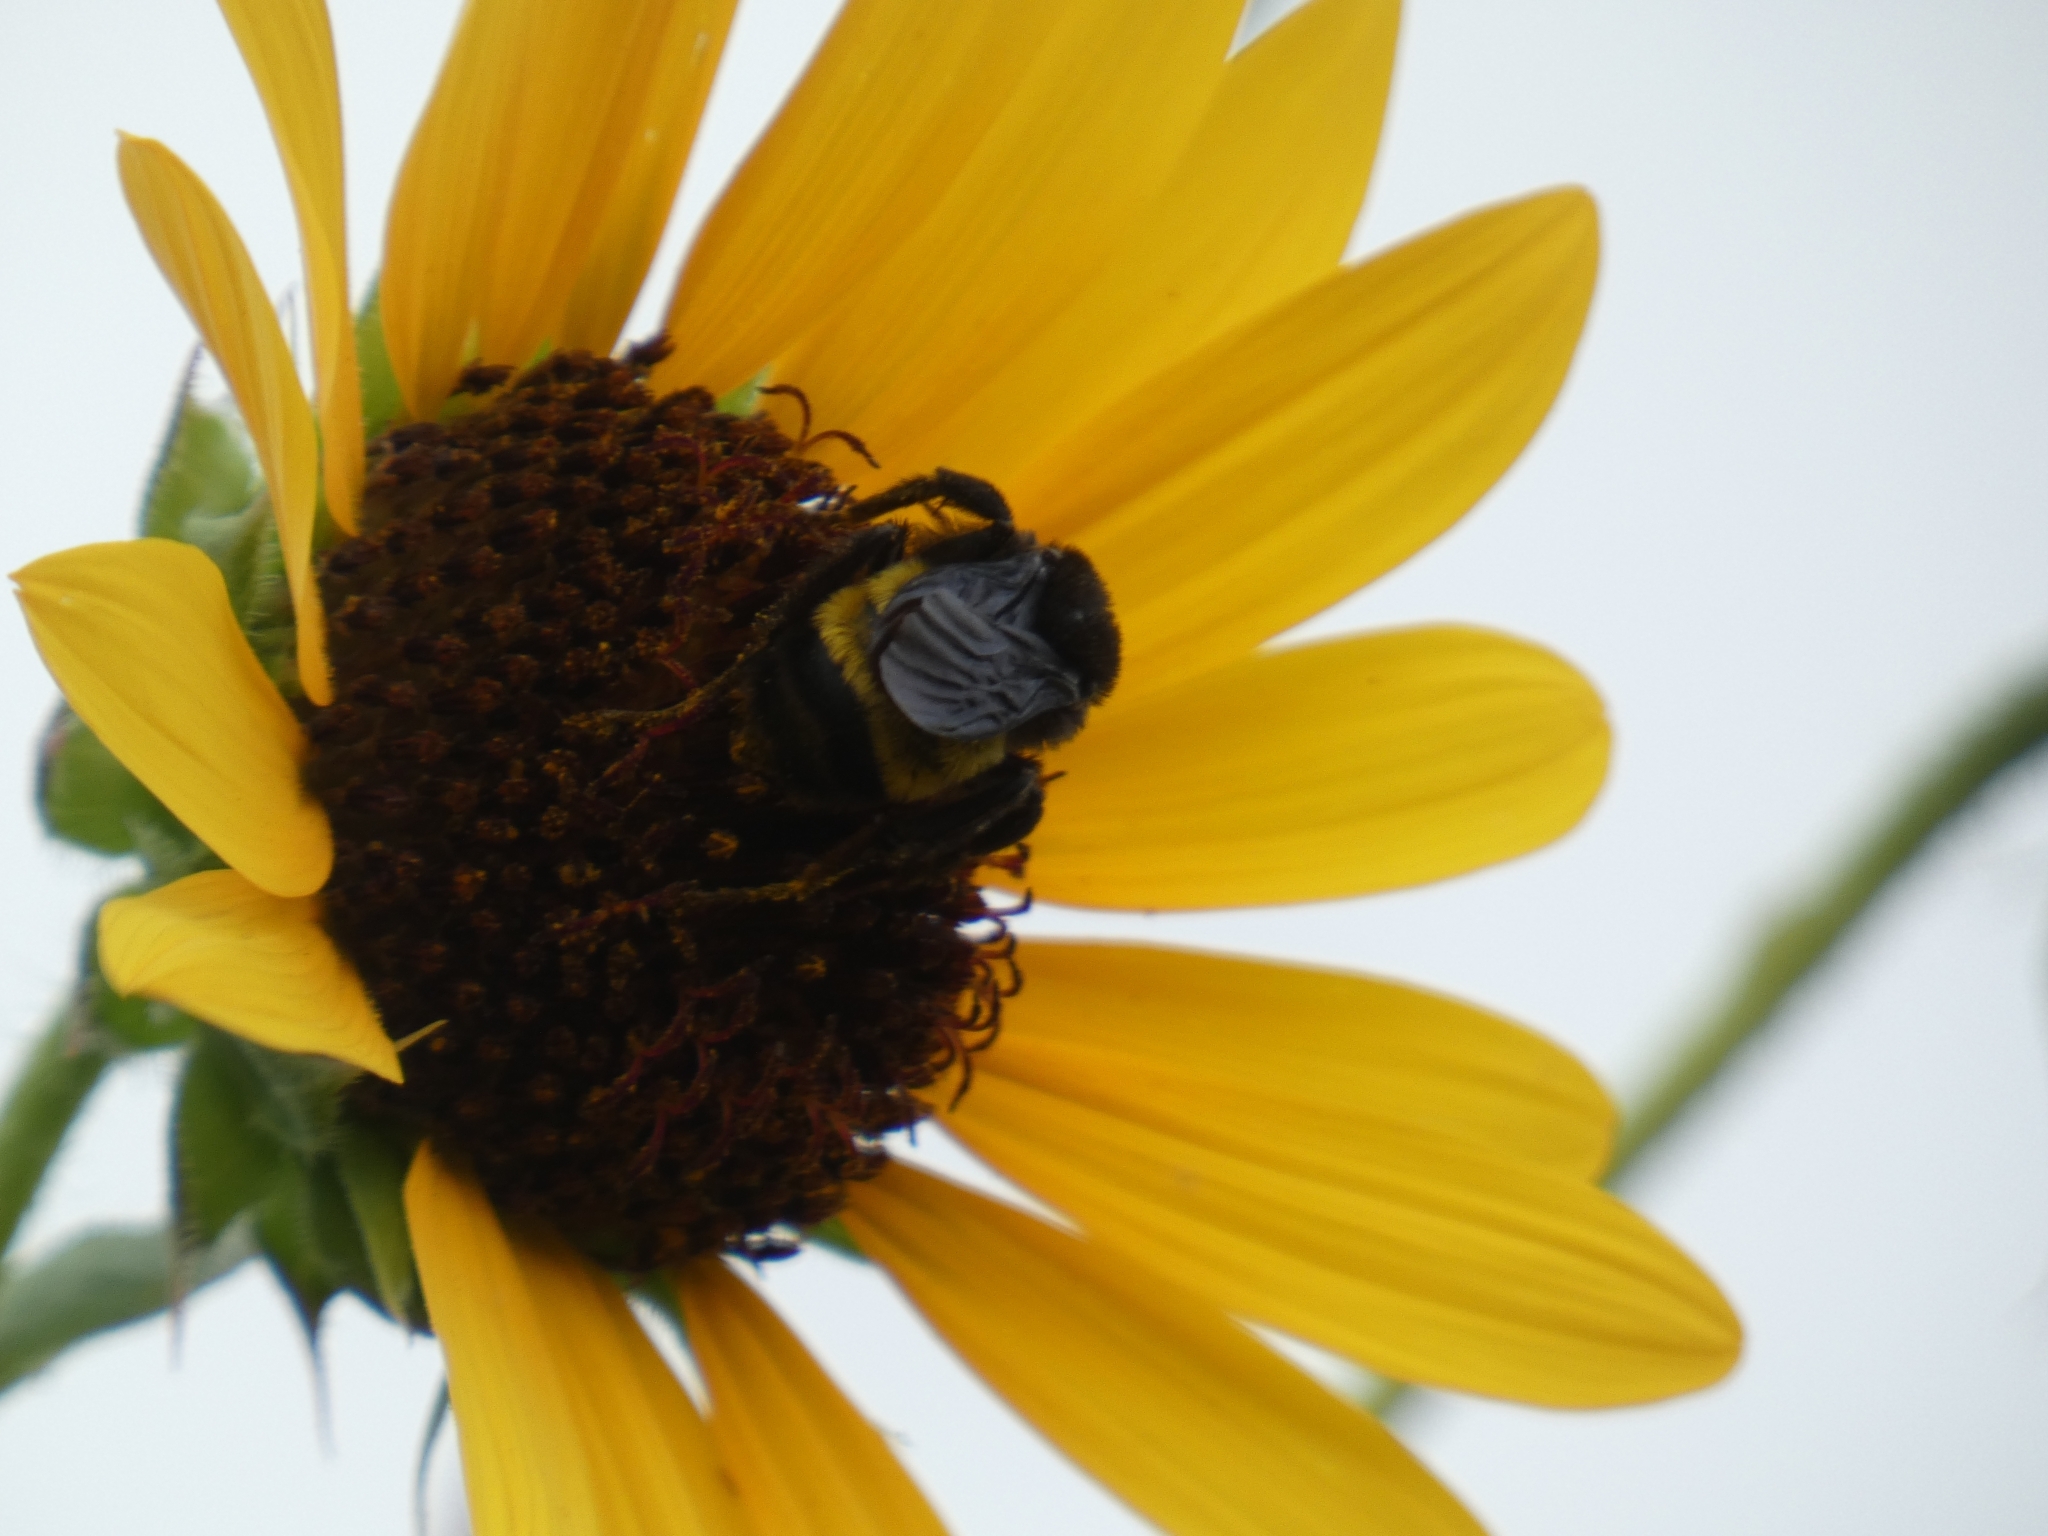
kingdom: Animalia
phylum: Arthropoda
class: Insecta
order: Hymenoptera
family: Apidae
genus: Bombus
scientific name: Bombus pensylvanicus
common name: Bumble bee
